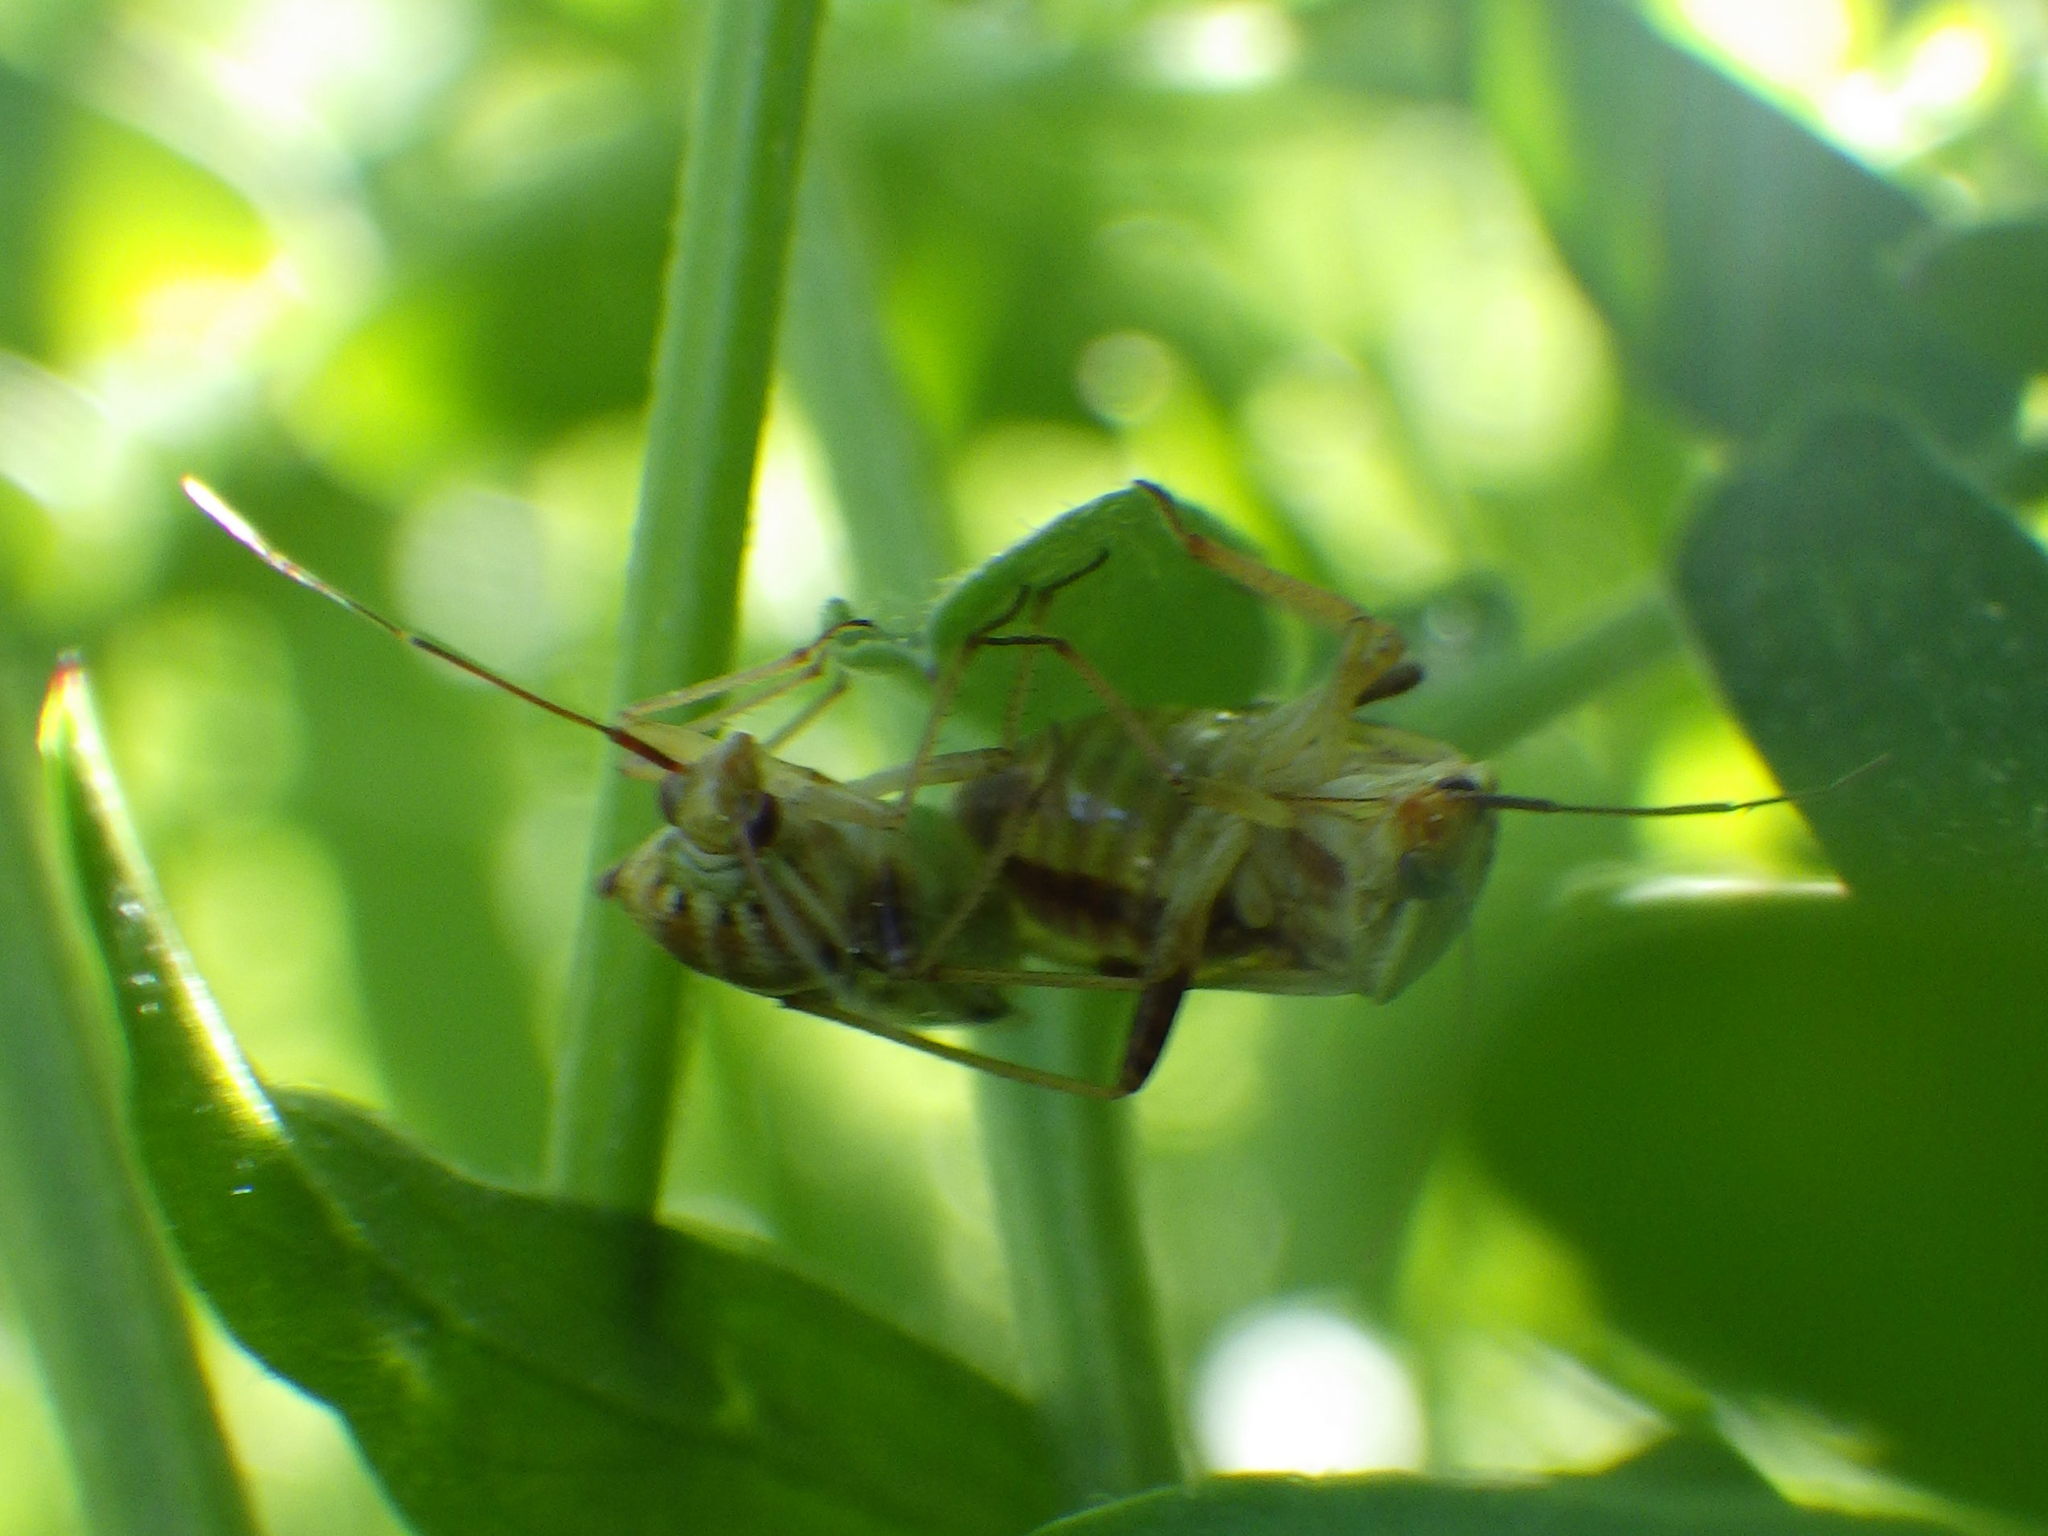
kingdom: Animalia
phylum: Arthropoda
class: Insecta
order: Hemiptera
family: Miridae
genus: Lygus
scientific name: Lygus vanduzeei
